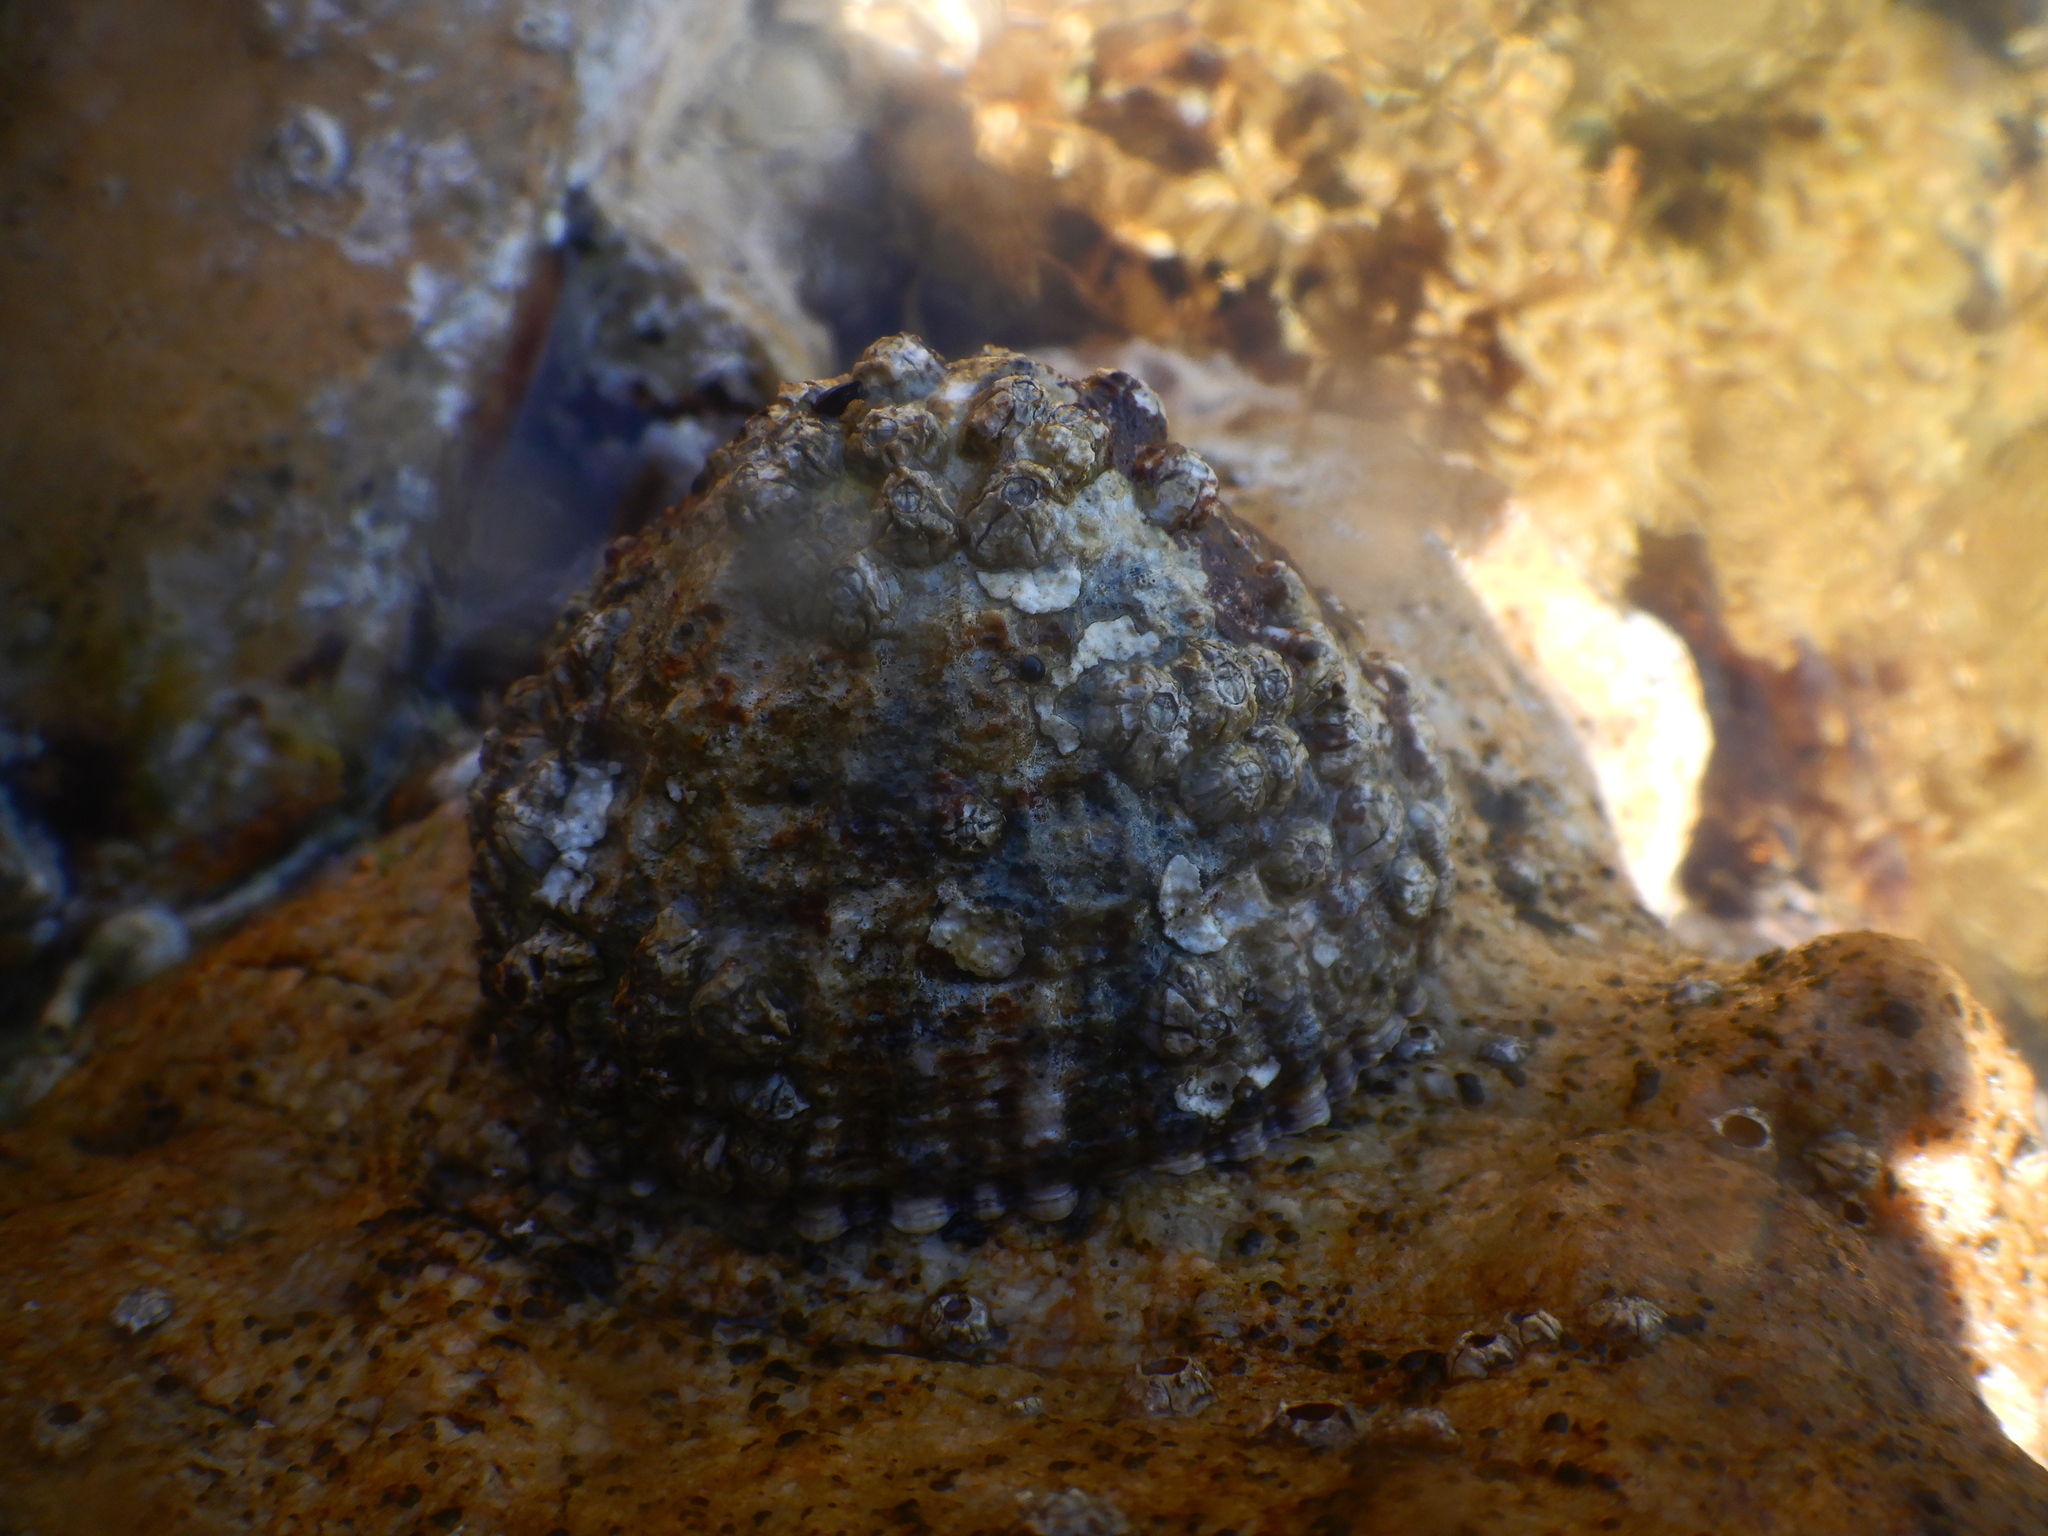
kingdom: Animalia
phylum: Mollusca
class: Gastropoda
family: Patellidae
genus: Patella
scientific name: Patella ferruginea
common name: Ribbed mediterranean limpet
